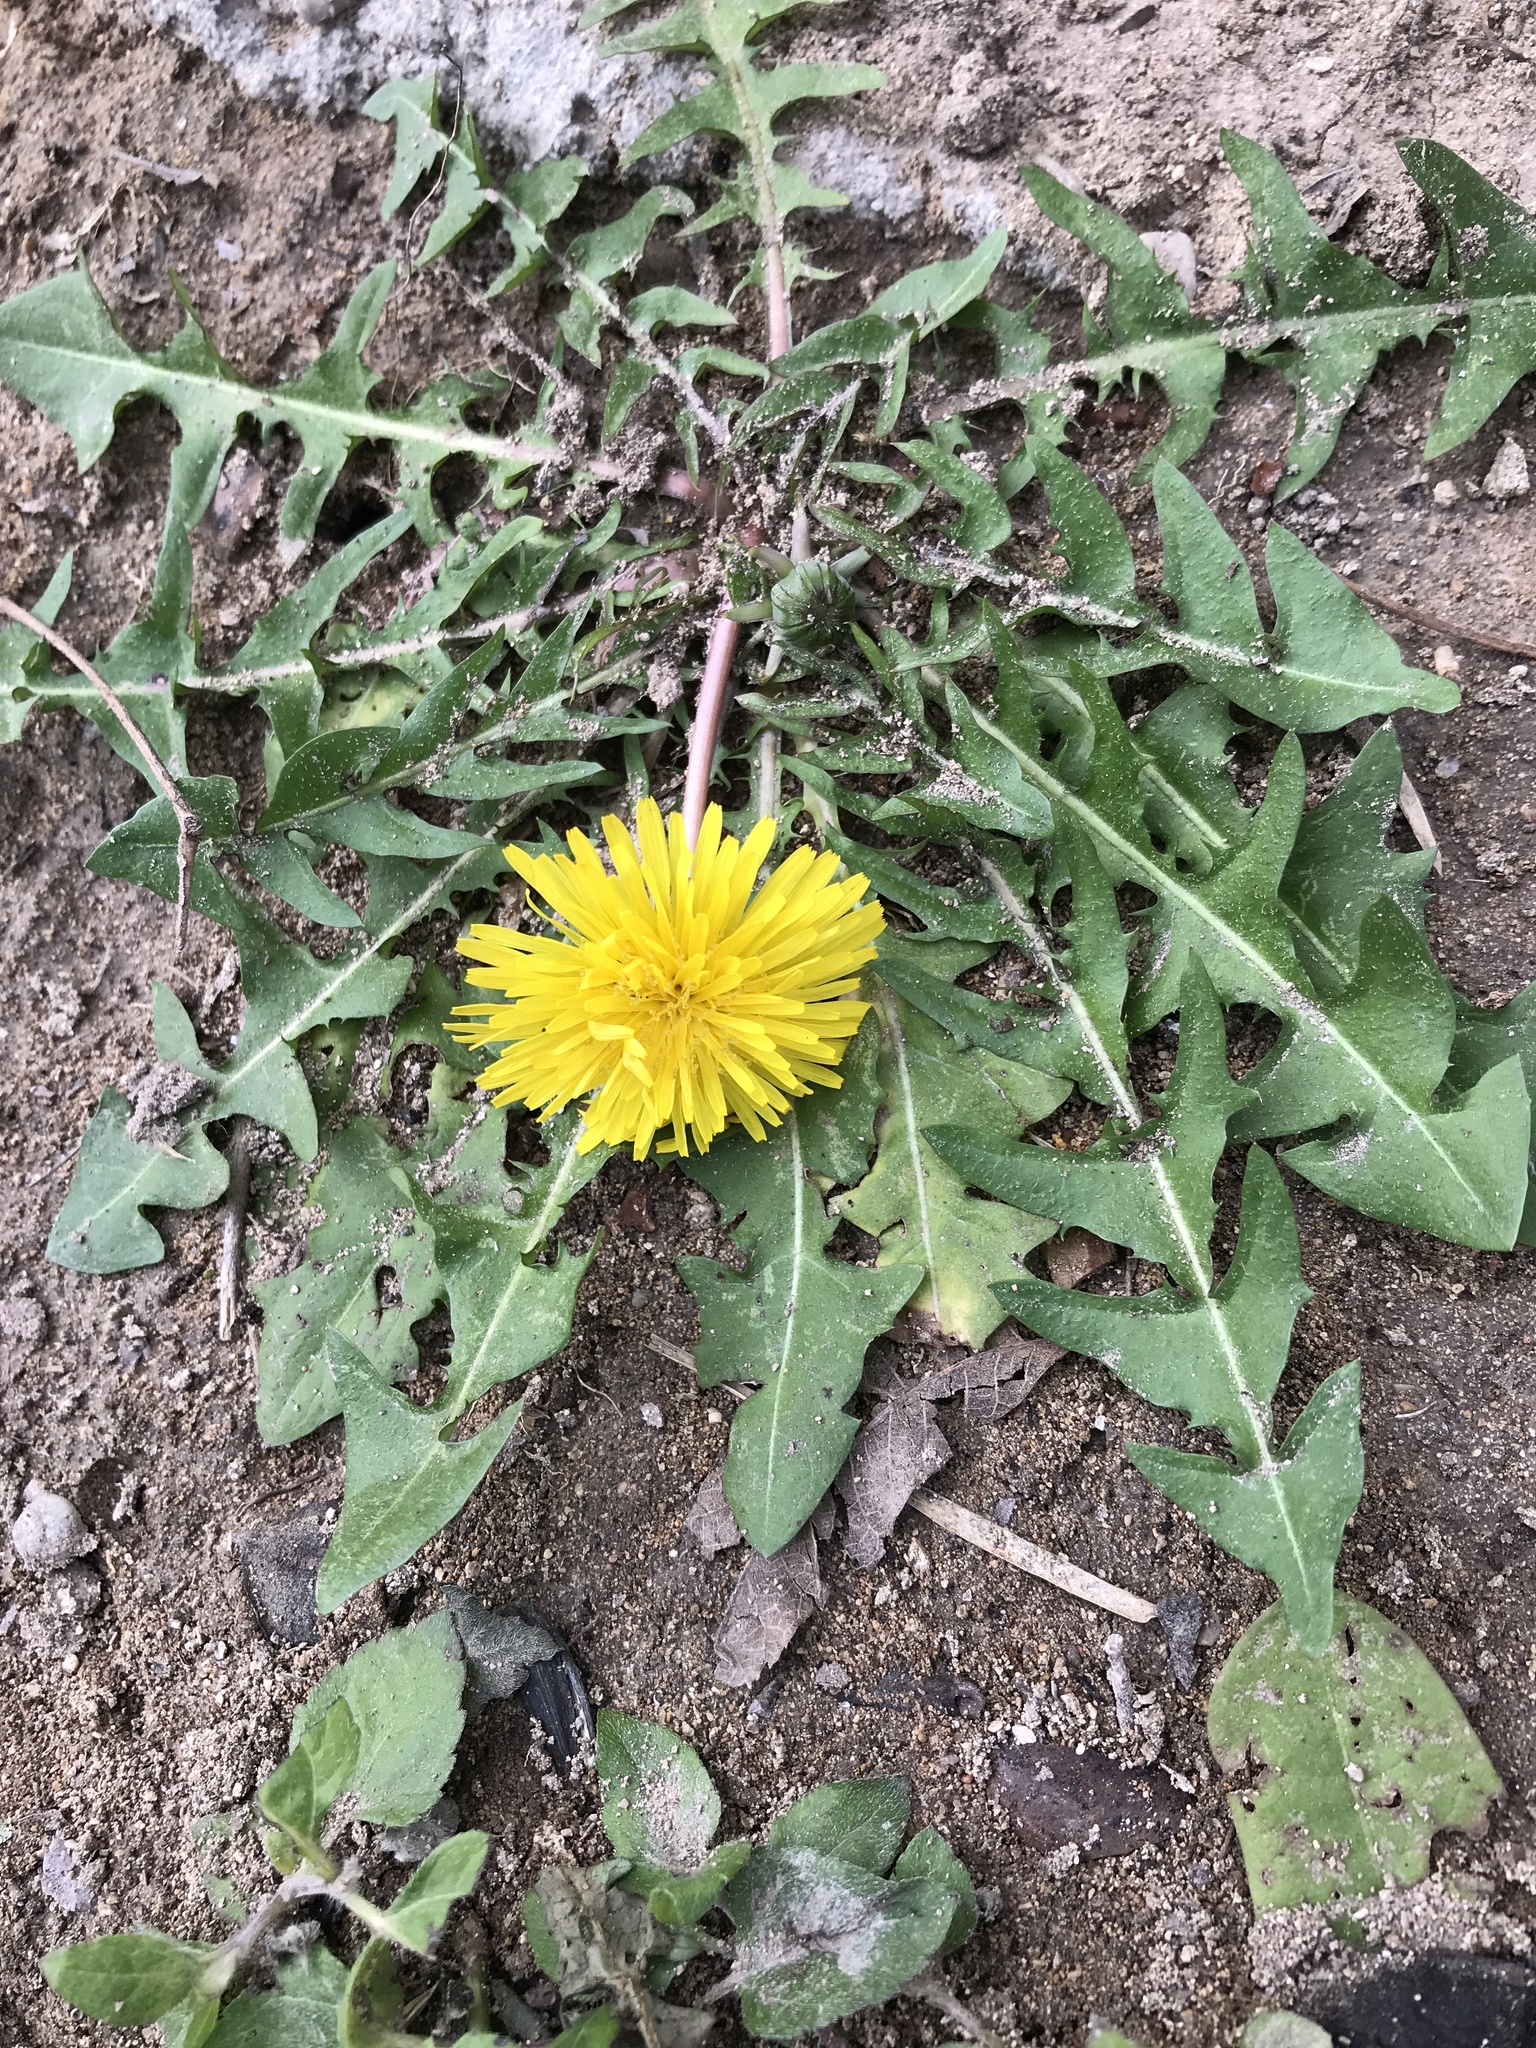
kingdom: Plantae
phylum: Tracheophyta
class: Magnoliopsida
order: Asterales
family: Asteraceae
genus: Taraxacum
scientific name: Taraxacum officinale
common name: Common dandelion
